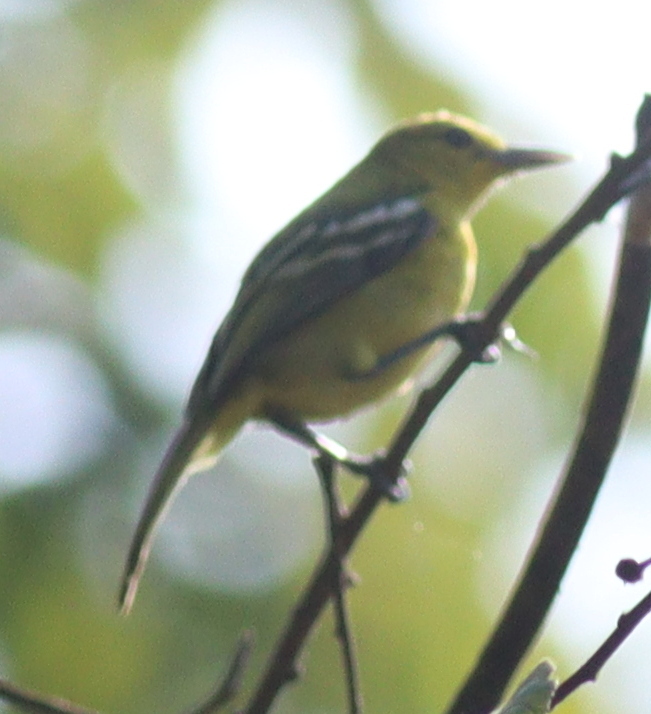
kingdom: Animalia
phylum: Chordata
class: Aves
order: Passeriformes
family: Aegithinidae
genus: Aegithina
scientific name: Aegithina tiphia
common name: Common iora
